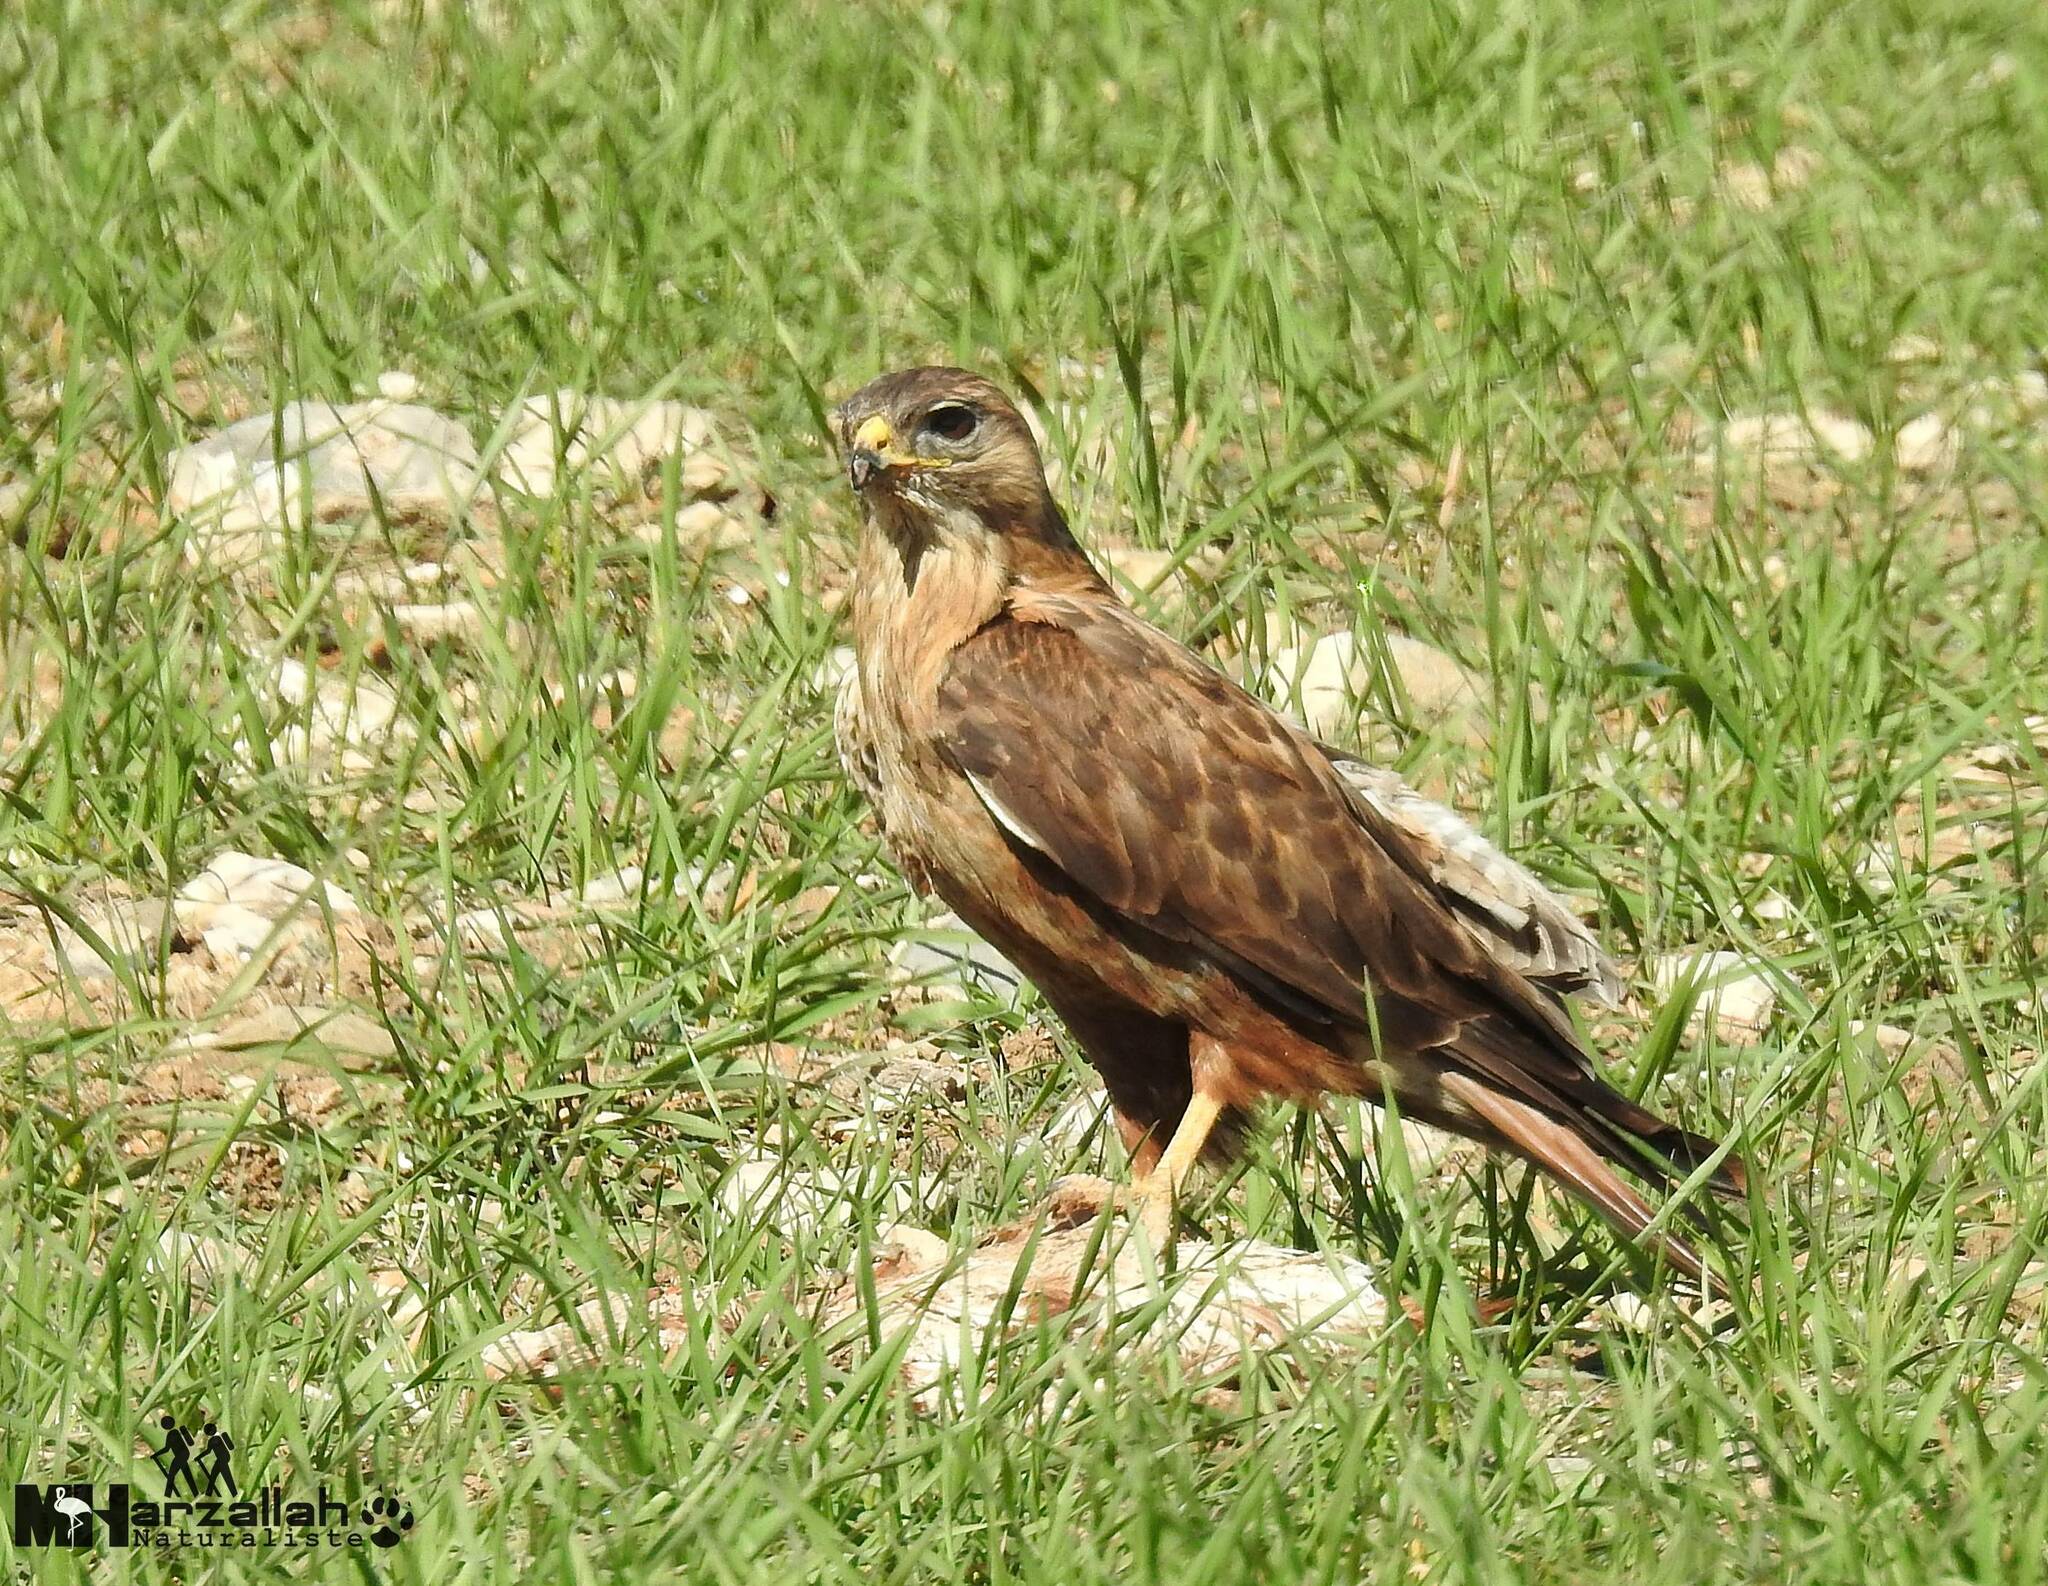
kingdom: Animalia
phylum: Chordata
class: Aves
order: Accipitriformes
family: Accipitridae
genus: Buteo
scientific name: Buteo rufinus
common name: Long-legged buzzard
